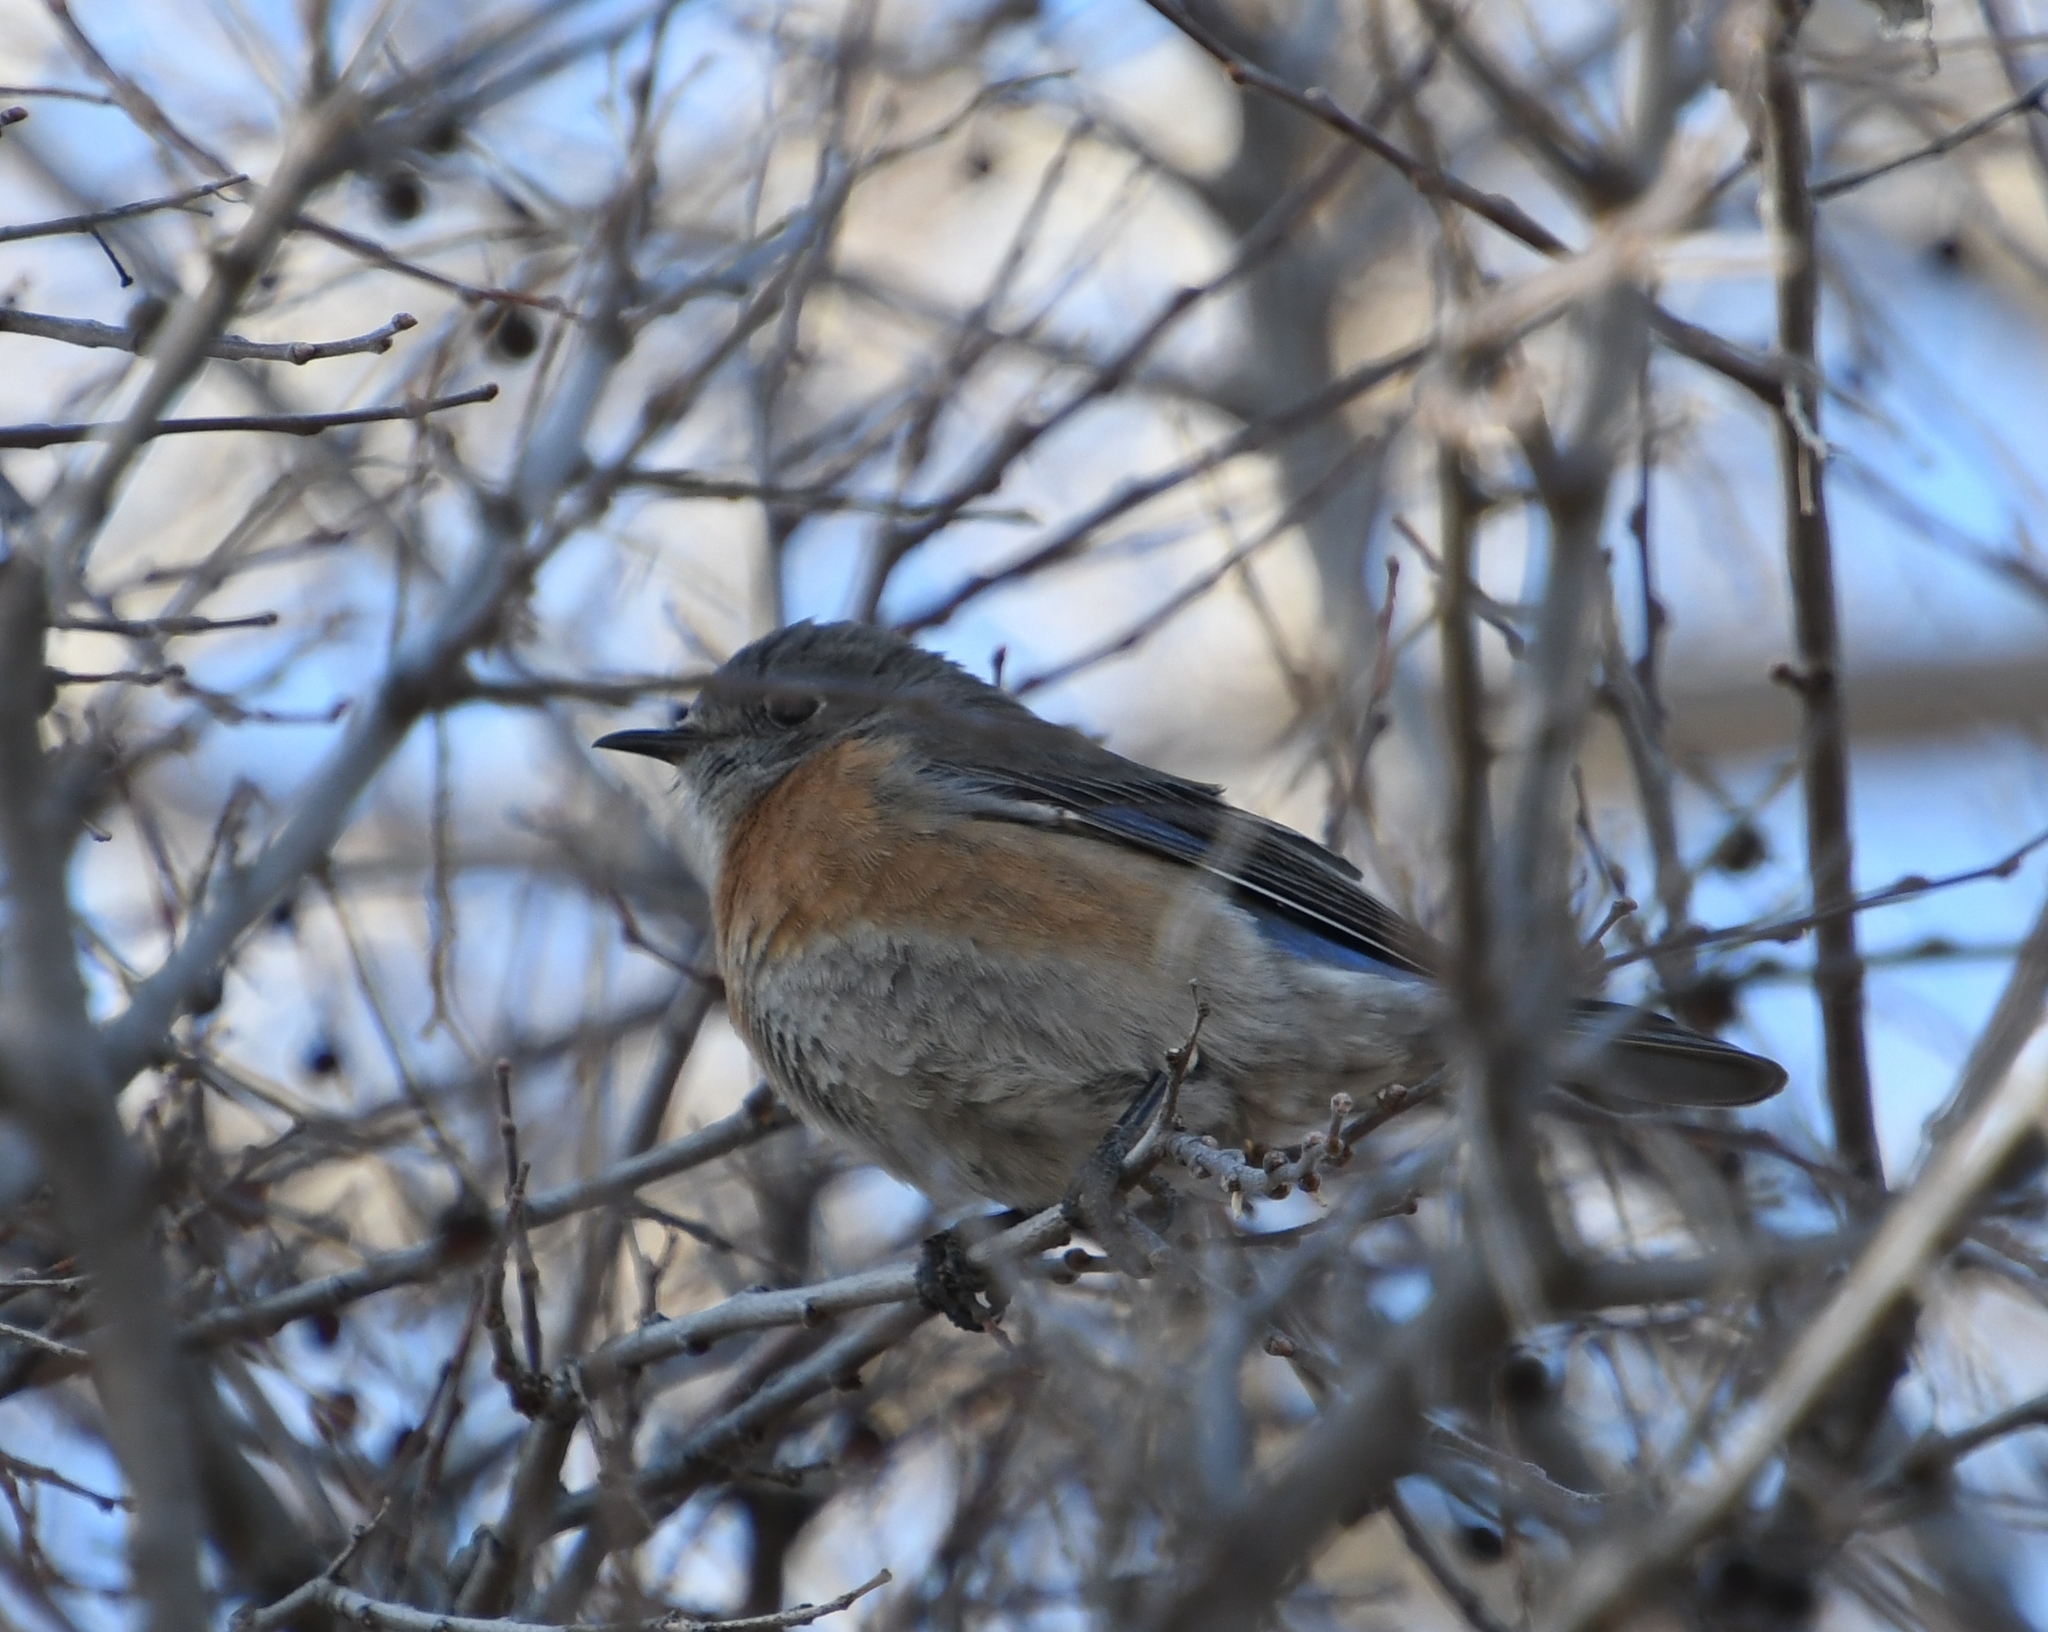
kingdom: Animalia
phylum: Chordata
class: Aves
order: Passeriformes
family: Turdidae
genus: Sialia
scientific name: Sialia mexicana
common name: Western bluebird
